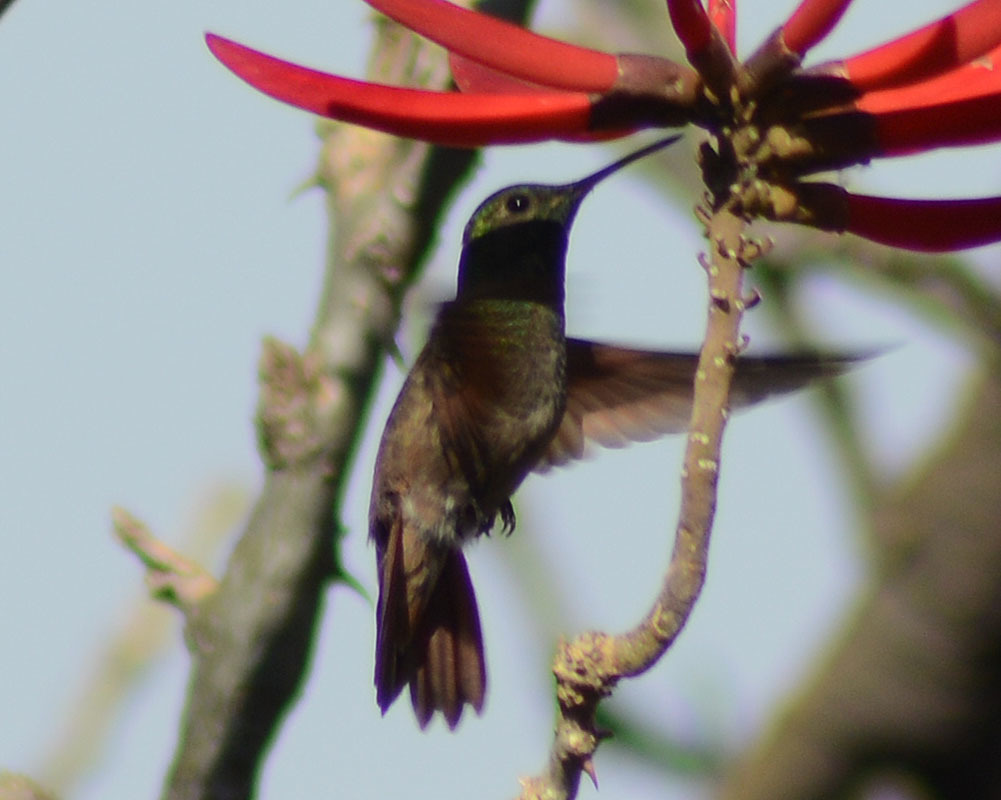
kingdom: Animalia
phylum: Chordata
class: Aves
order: Apodiformes
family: Trochilidae
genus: Saucerottia
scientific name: Saucerottia beryllina
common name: Berylline hummingbird
